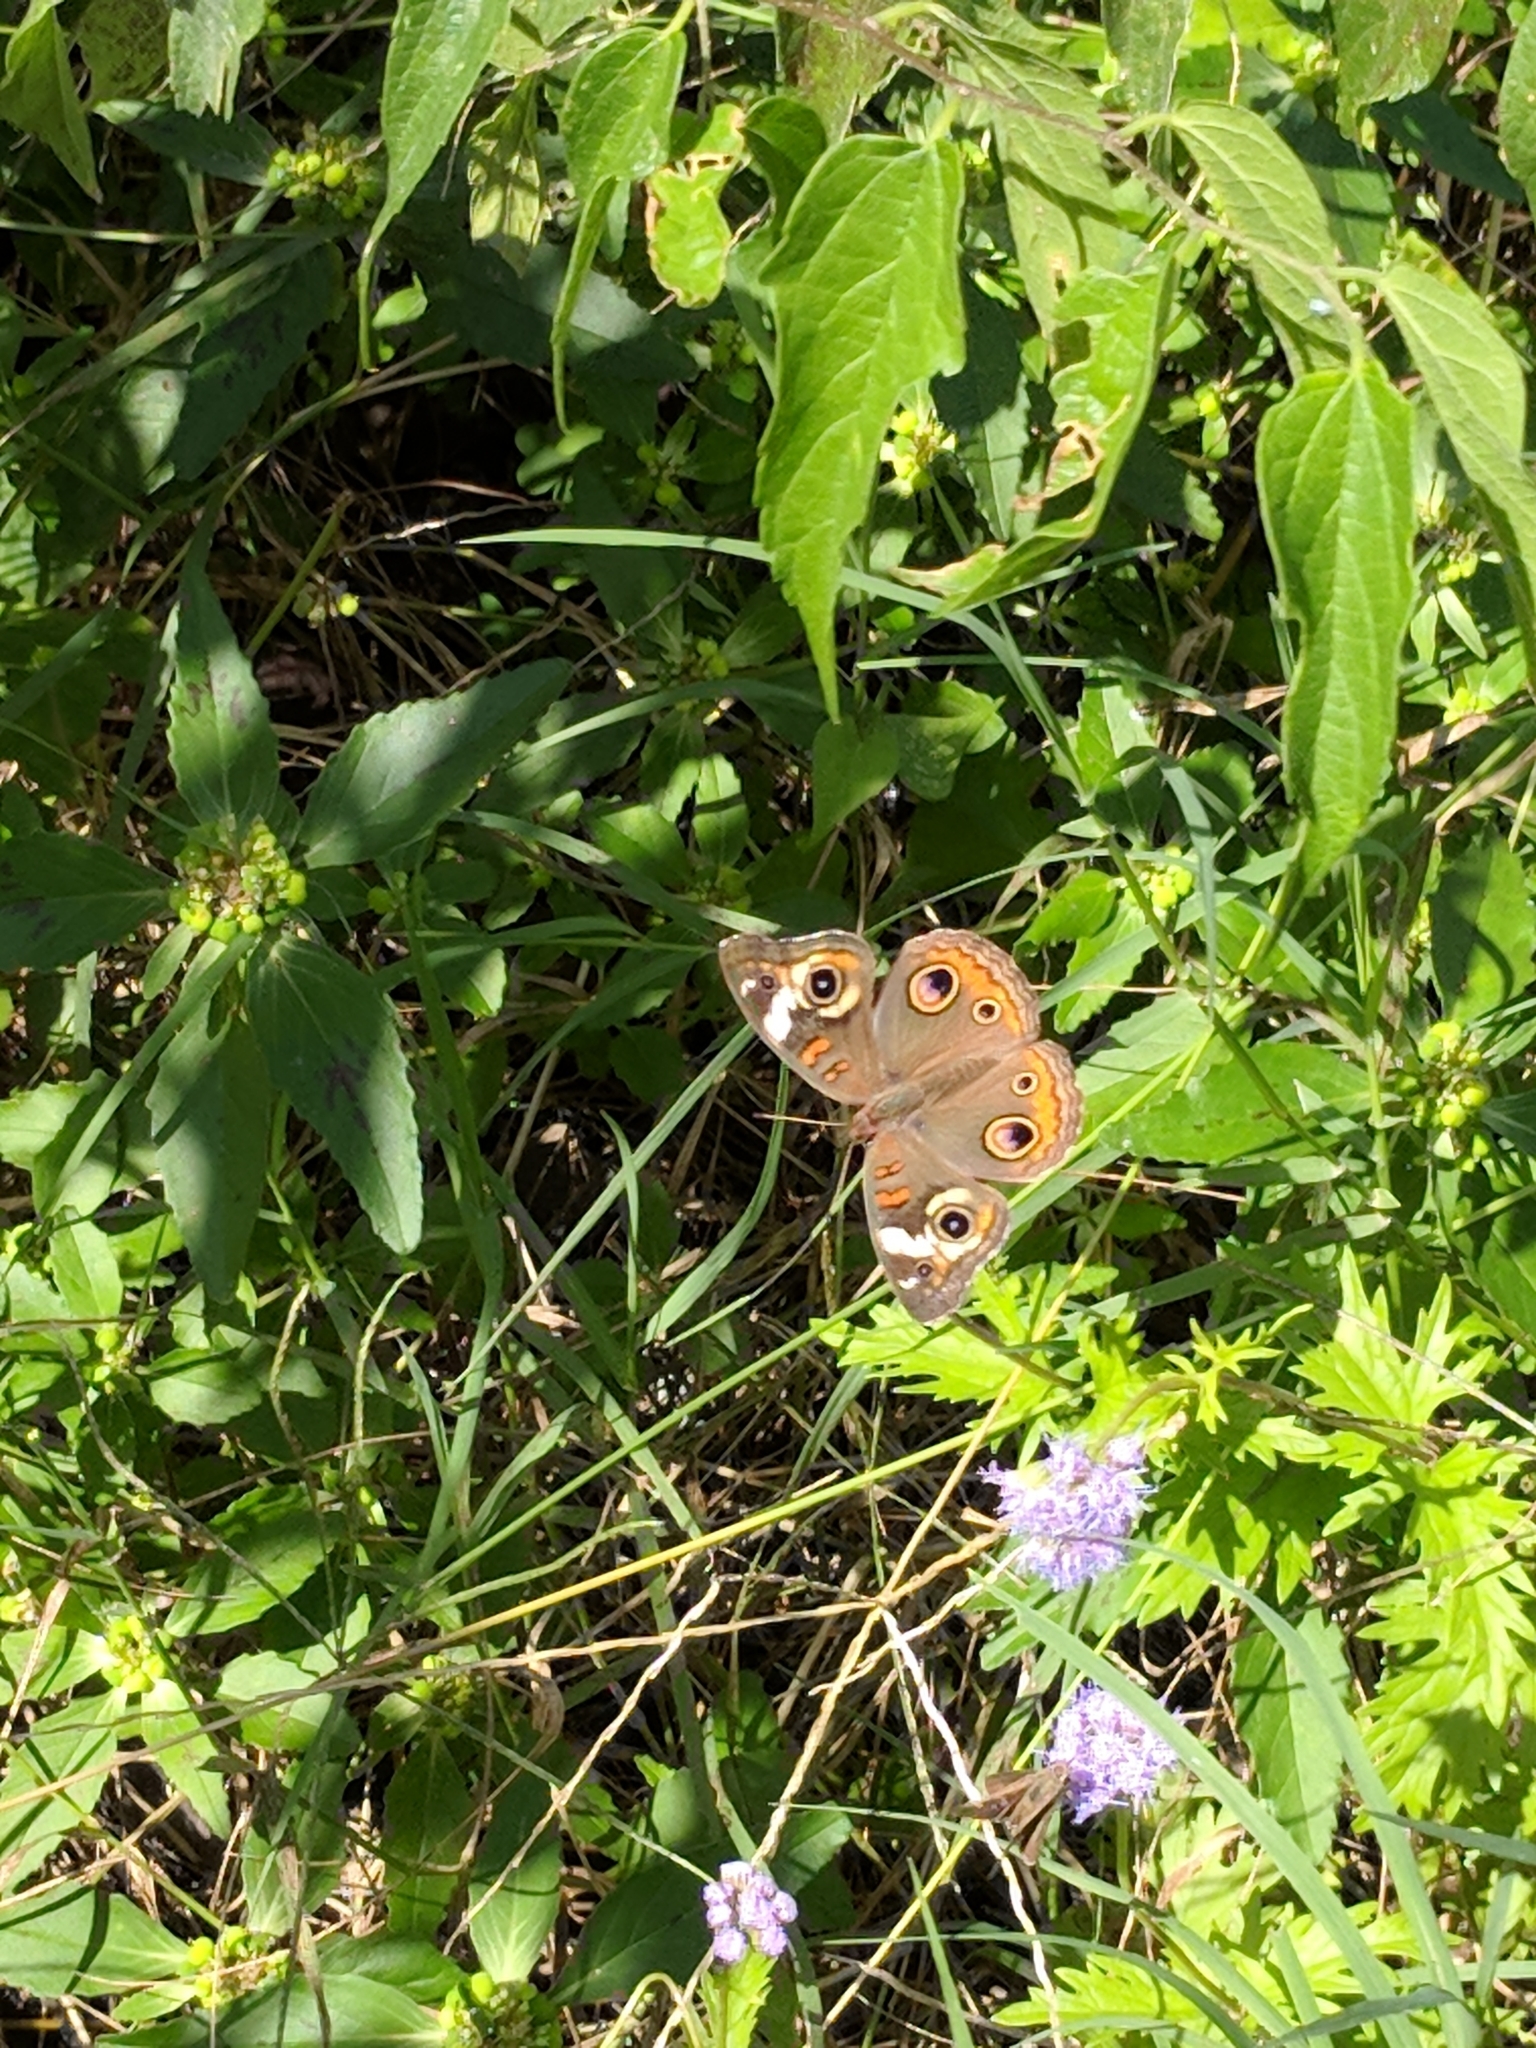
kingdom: Animalia
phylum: Arthropoda
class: Insecta
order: Lepidoptera
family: Nymphalidae
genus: Junonia
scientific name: Junonia coenia
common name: Common buckeye
